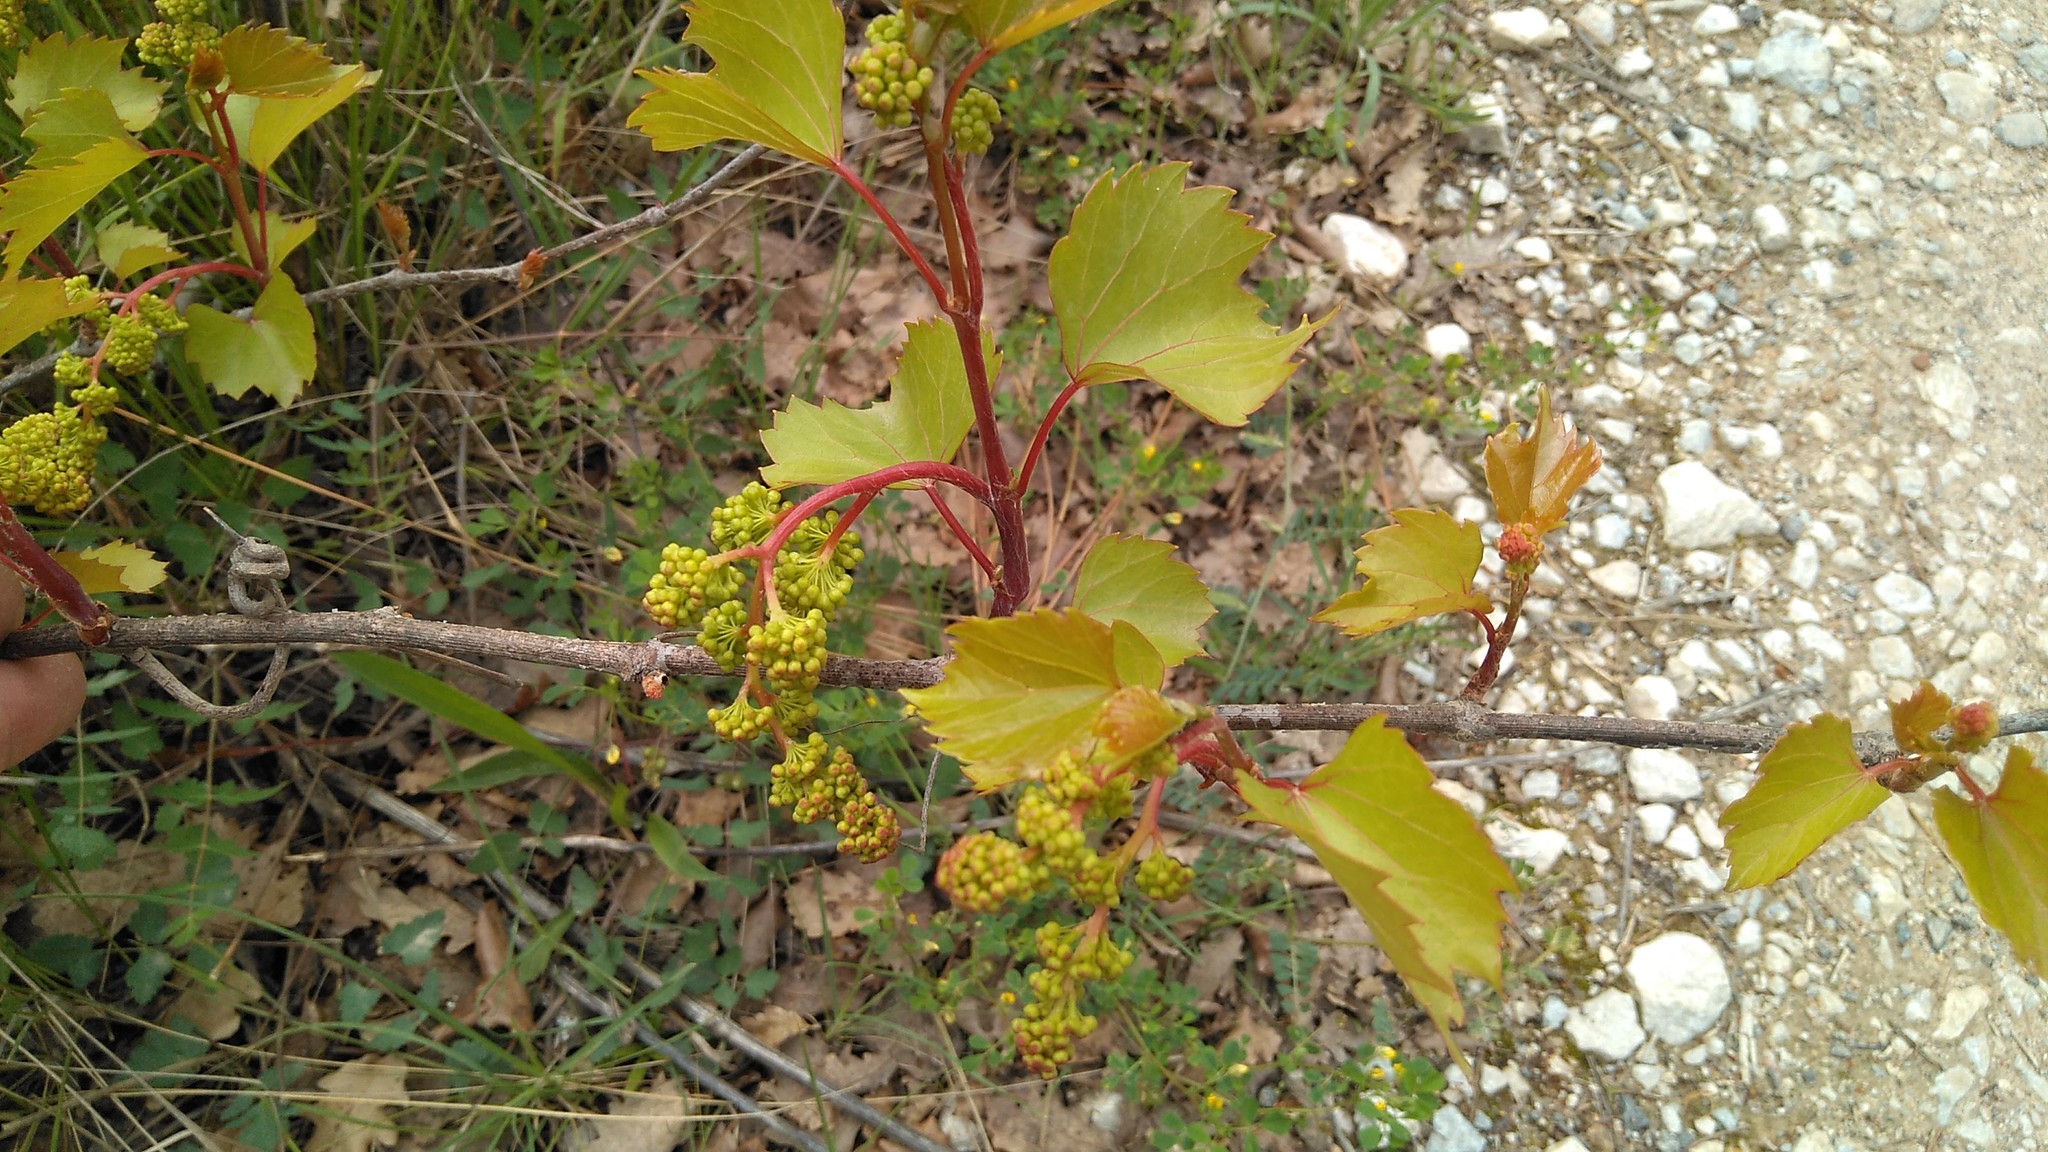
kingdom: Plantae
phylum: Tracheophyta
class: Magnoliopsida
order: Vitales
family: Vitaceae
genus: Vitis
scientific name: Vitis rupestris
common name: Rock grape
